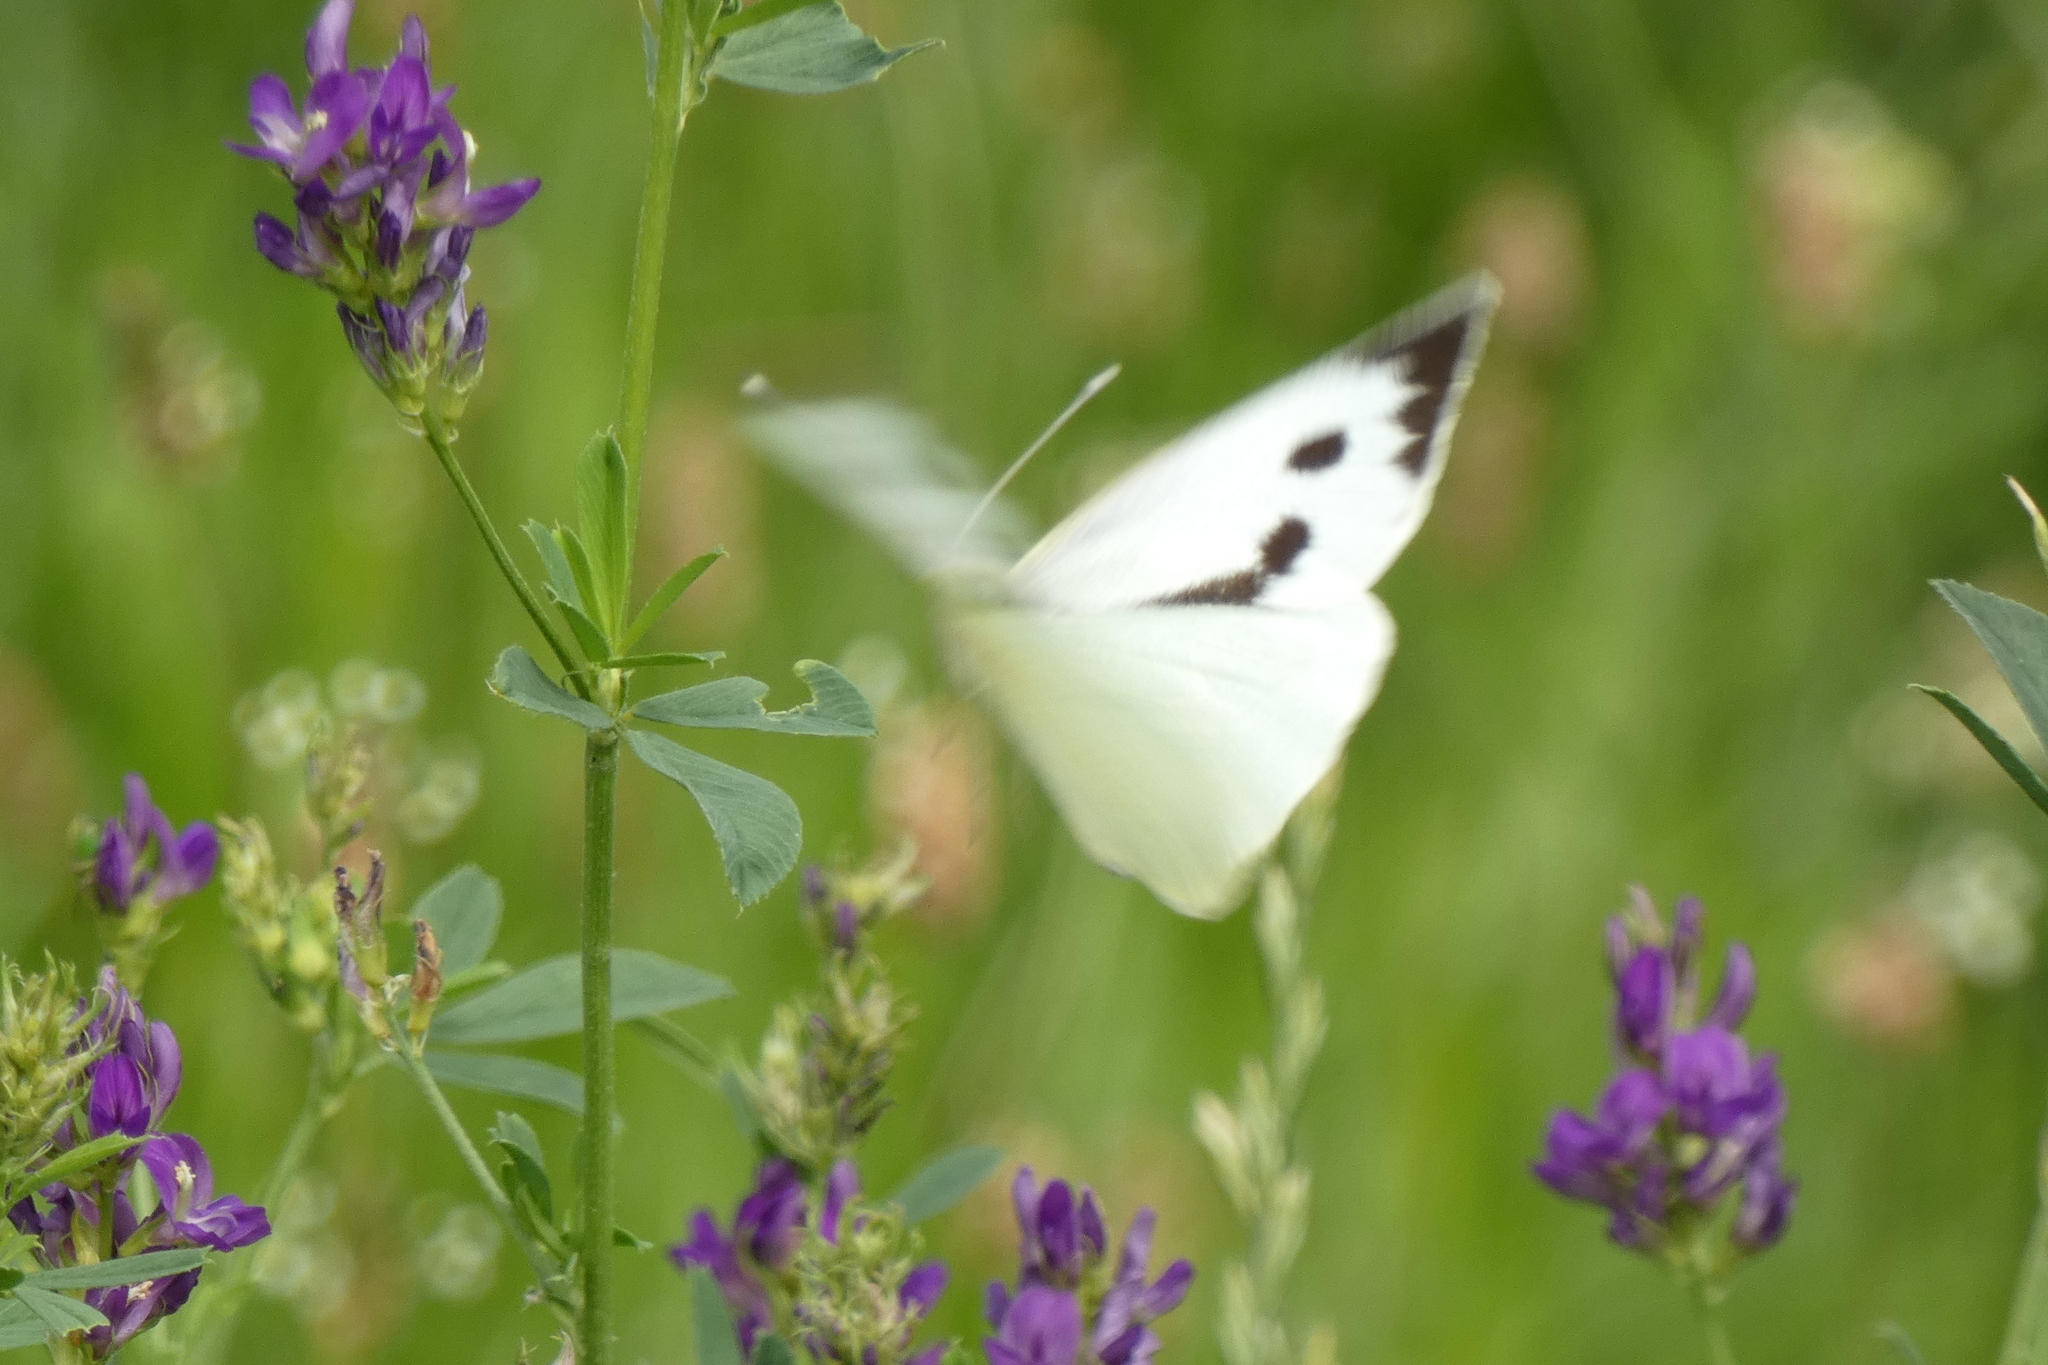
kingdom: Animalia
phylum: Arthropoda
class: Insecta
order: Lepidoptera
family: Pieridae
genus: Pieris
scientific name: Pieris brassicae
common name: Large white
